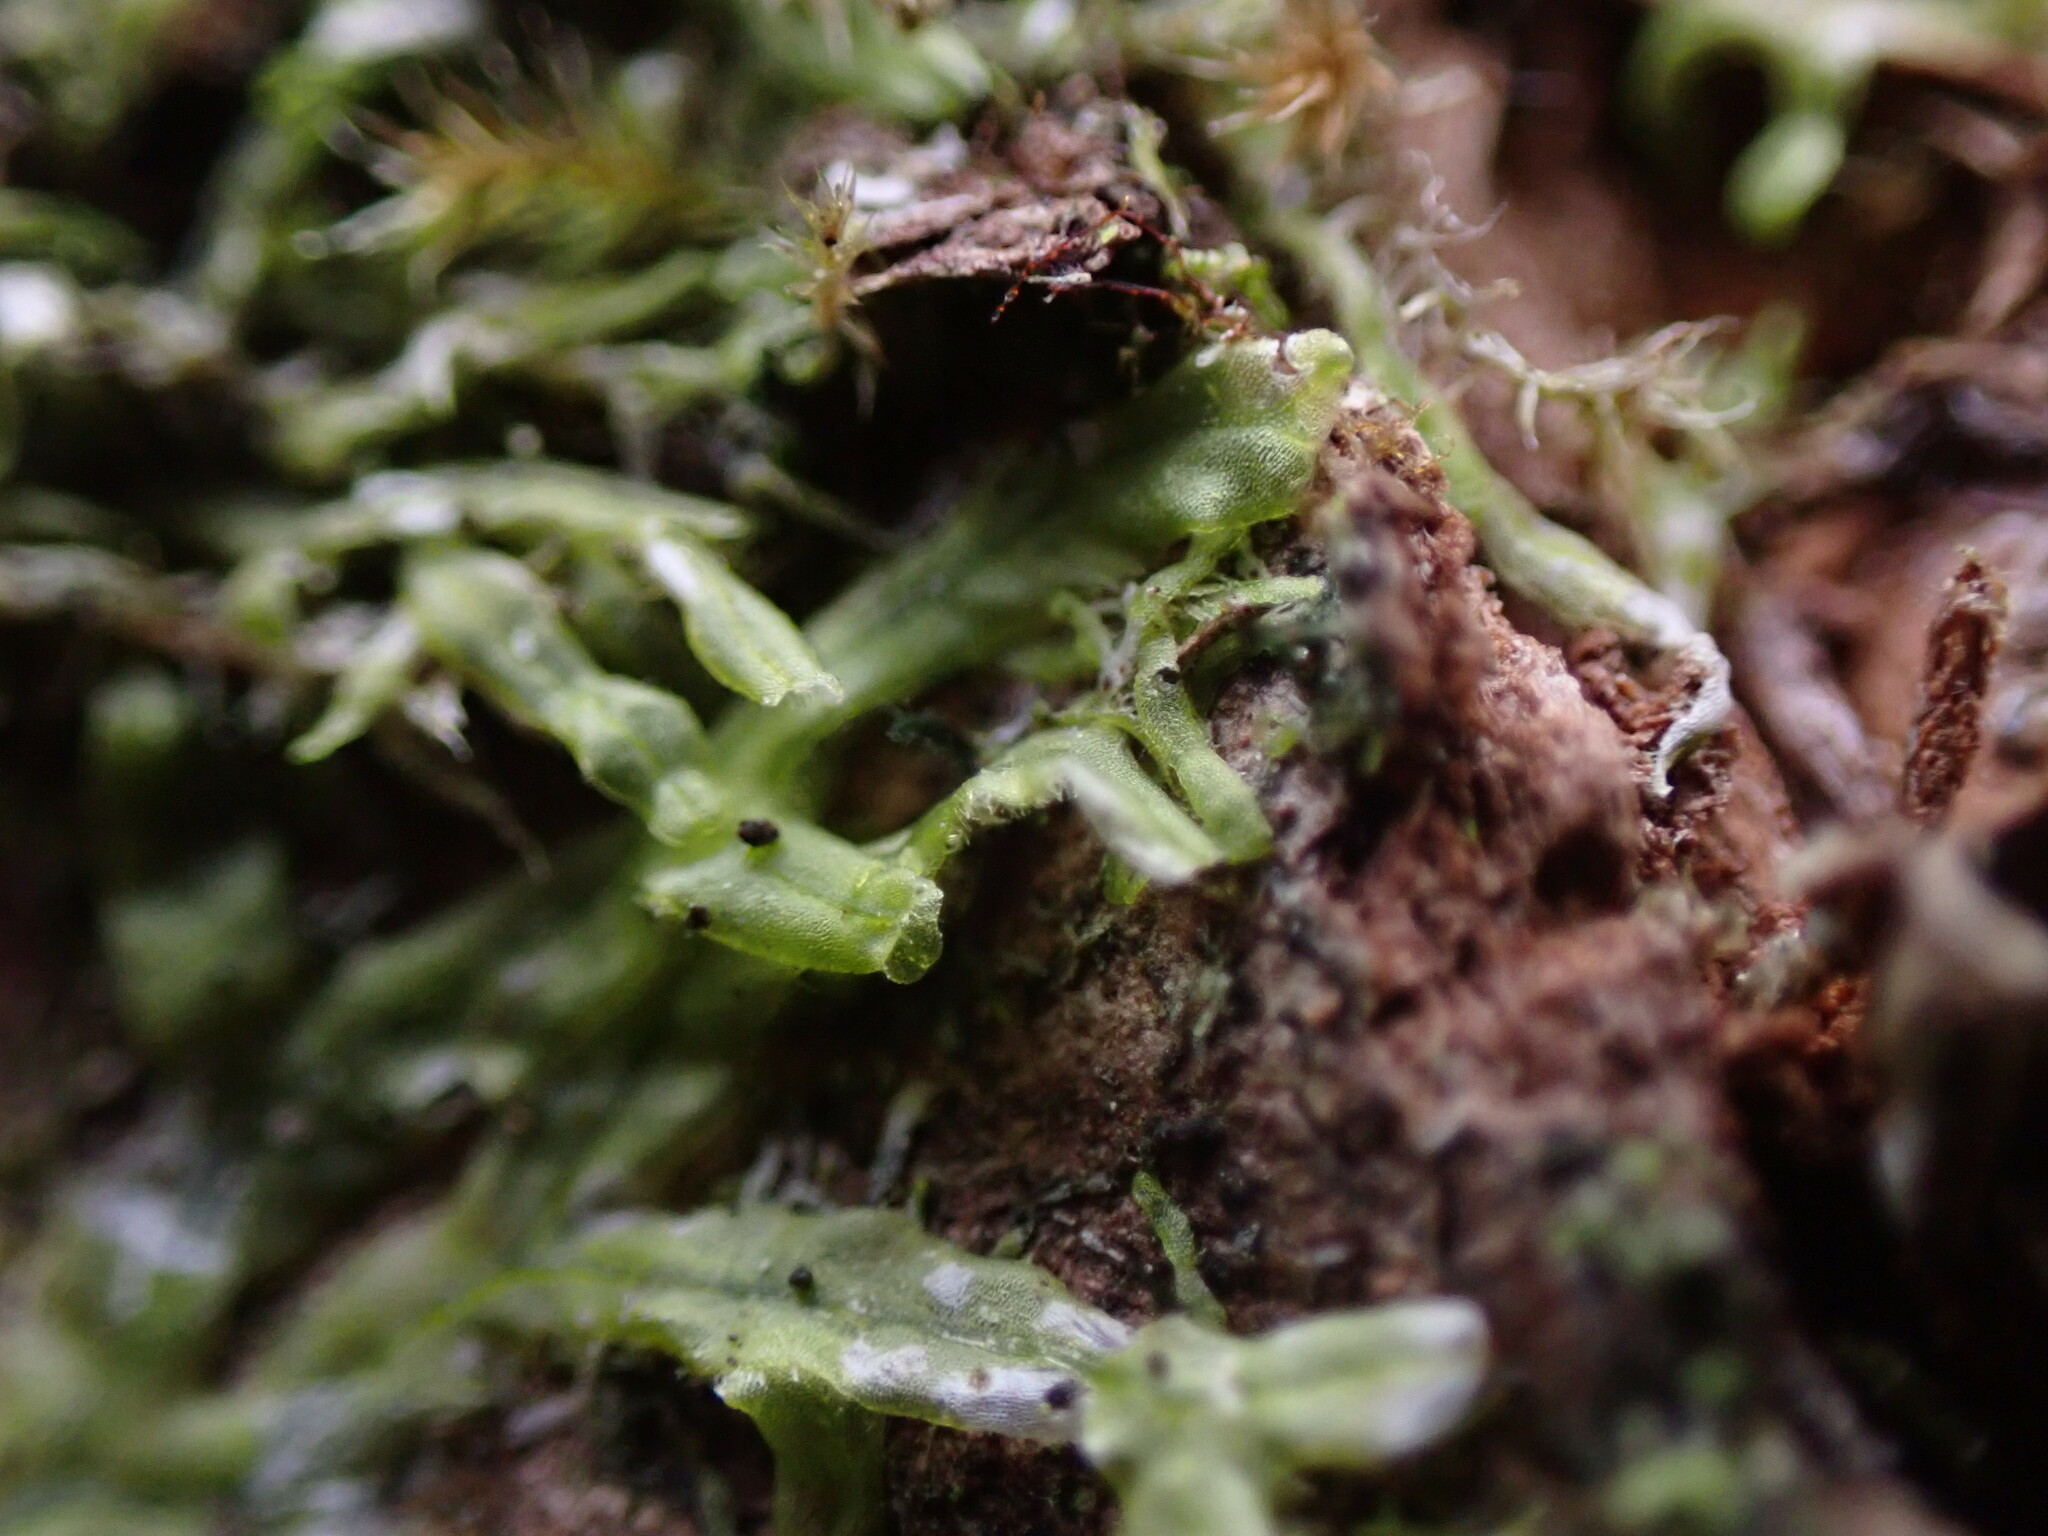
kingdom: Plantae
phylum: Marchantiophyta
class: Jungermanniopsida
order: Metzgeriales
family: Metzgeriaceae
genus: Metzgeria
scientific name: Metzgeria consanguinea
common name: Whiskered veilwort
